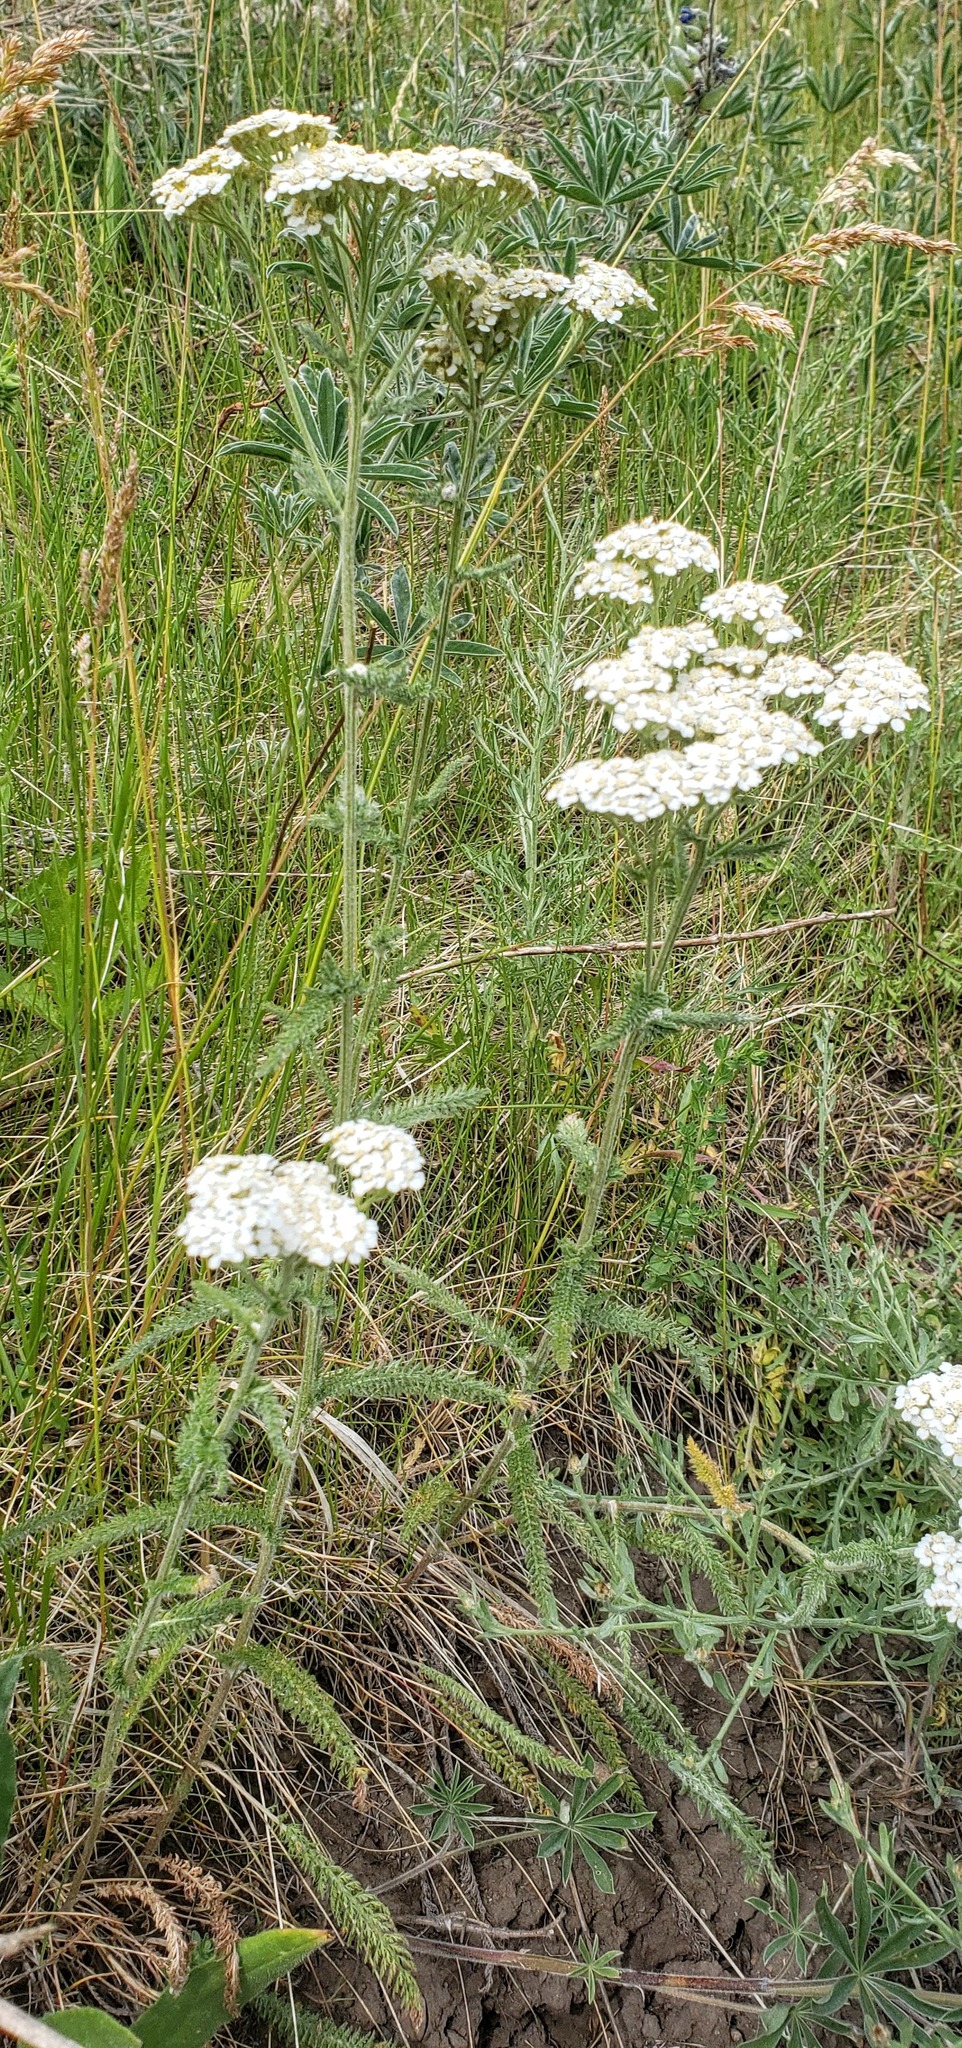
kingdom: Plantae
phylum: Tracheophyta
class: Magnoliopsida
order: Asterales
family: Asteraceae
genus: Achillea
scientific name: Achillea millefolium
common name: Yarrow
